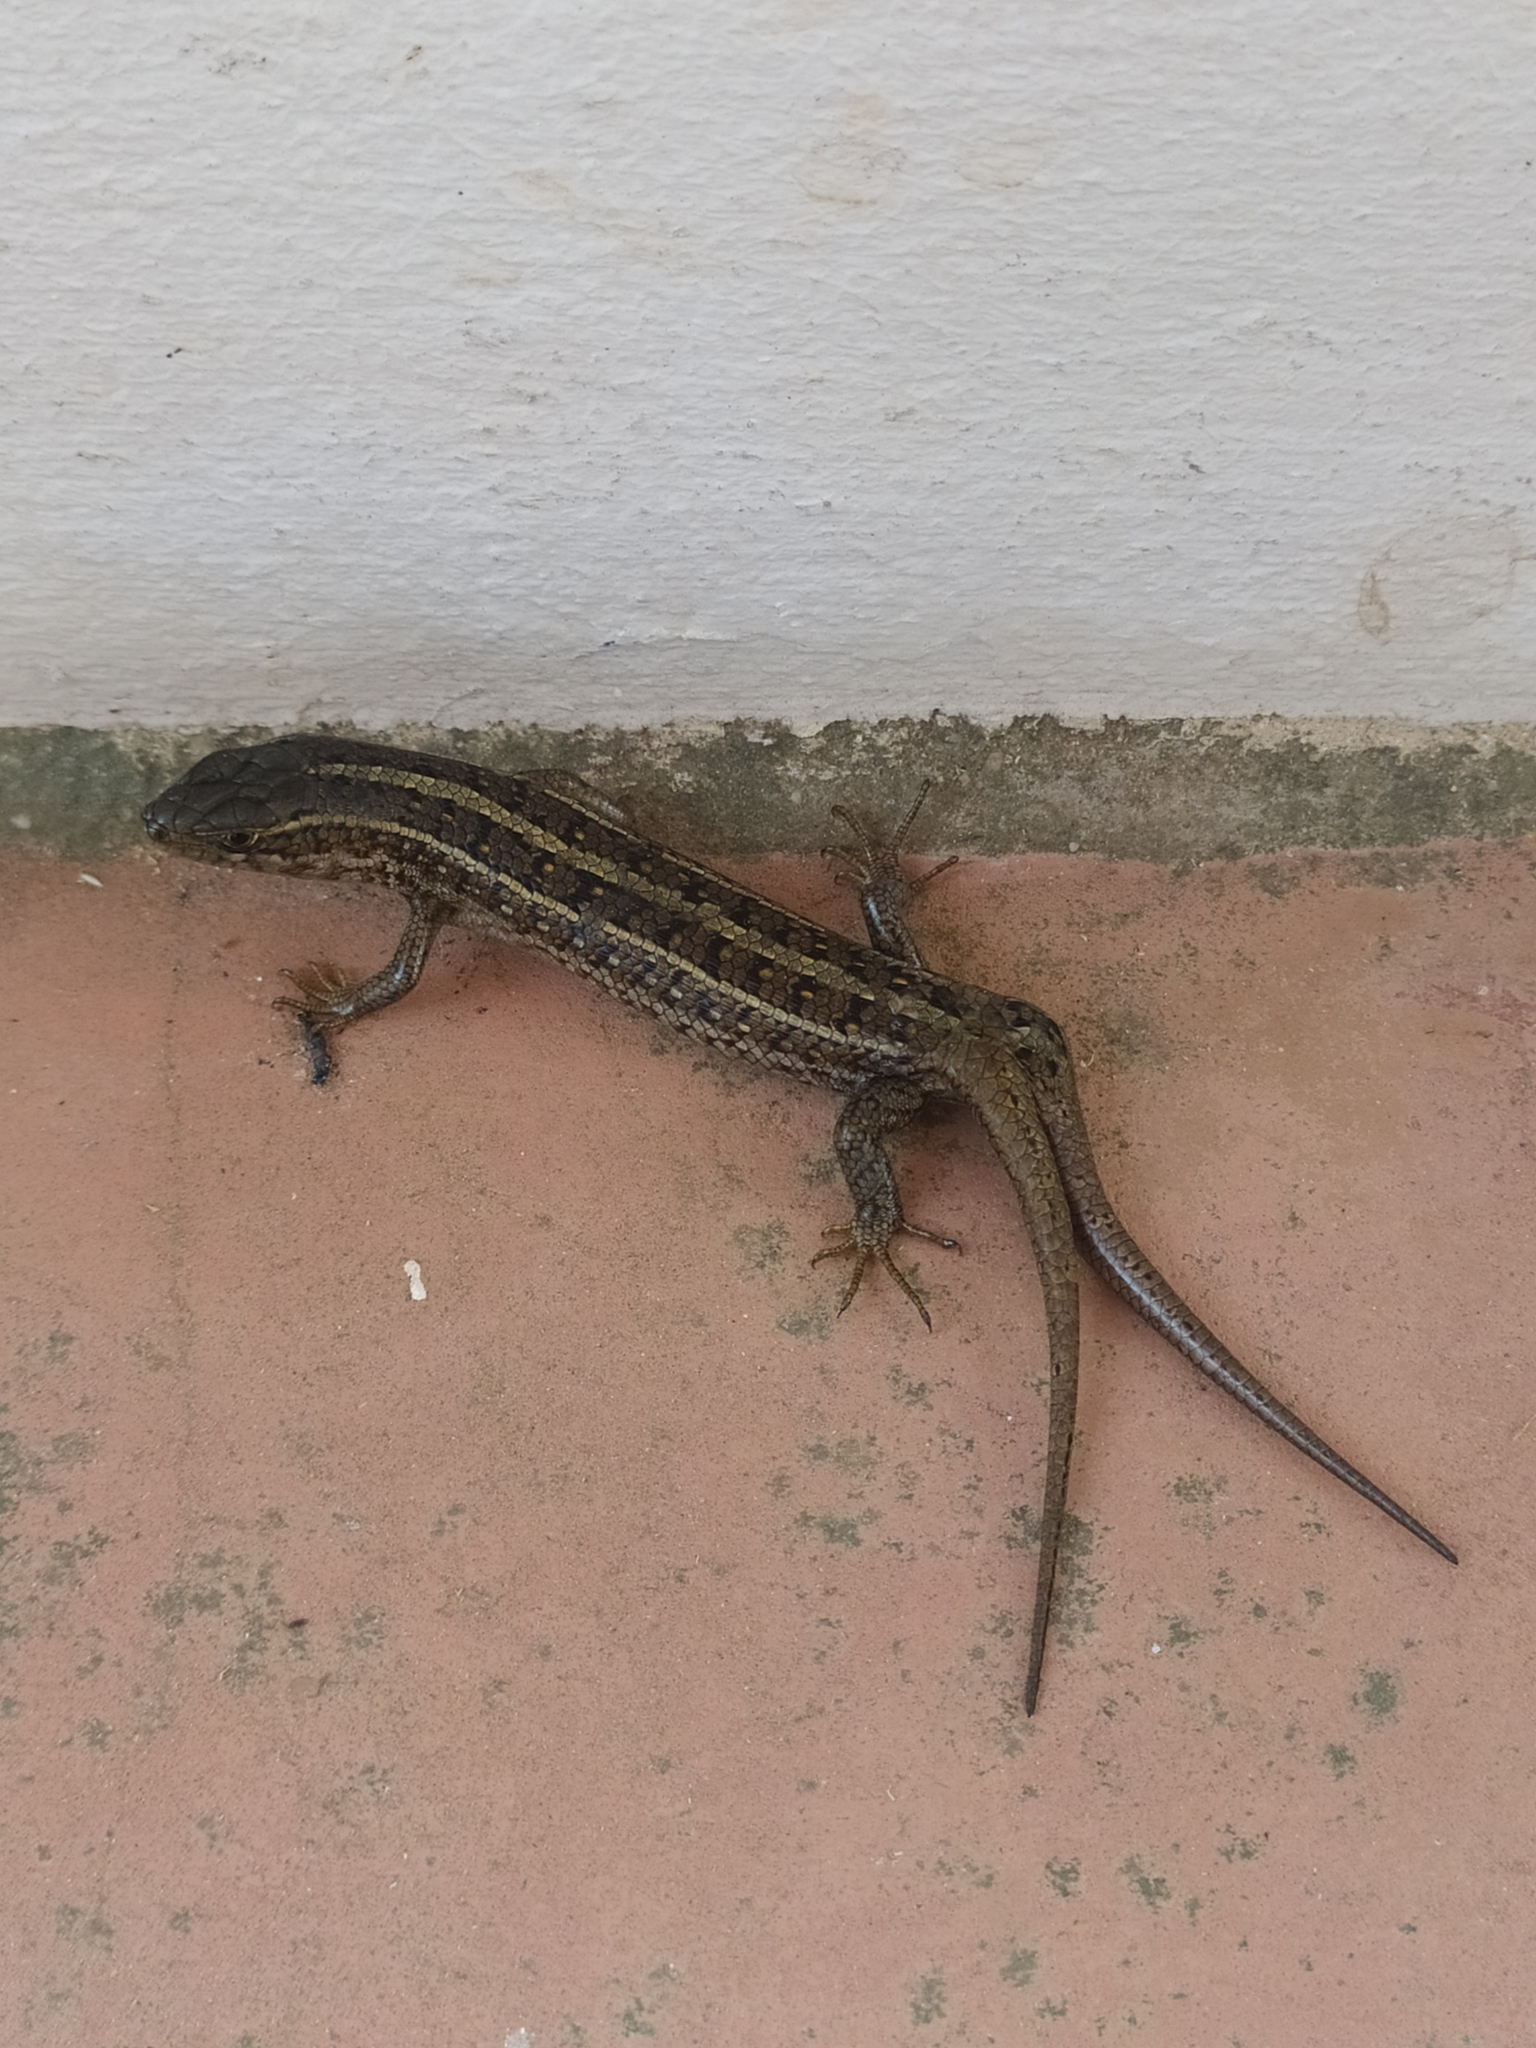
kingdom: Animalia
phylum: Chordata
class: Squamata
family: Scincidae
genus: Trachylepis
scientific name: Trachylepis capensis
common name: Cape skink
